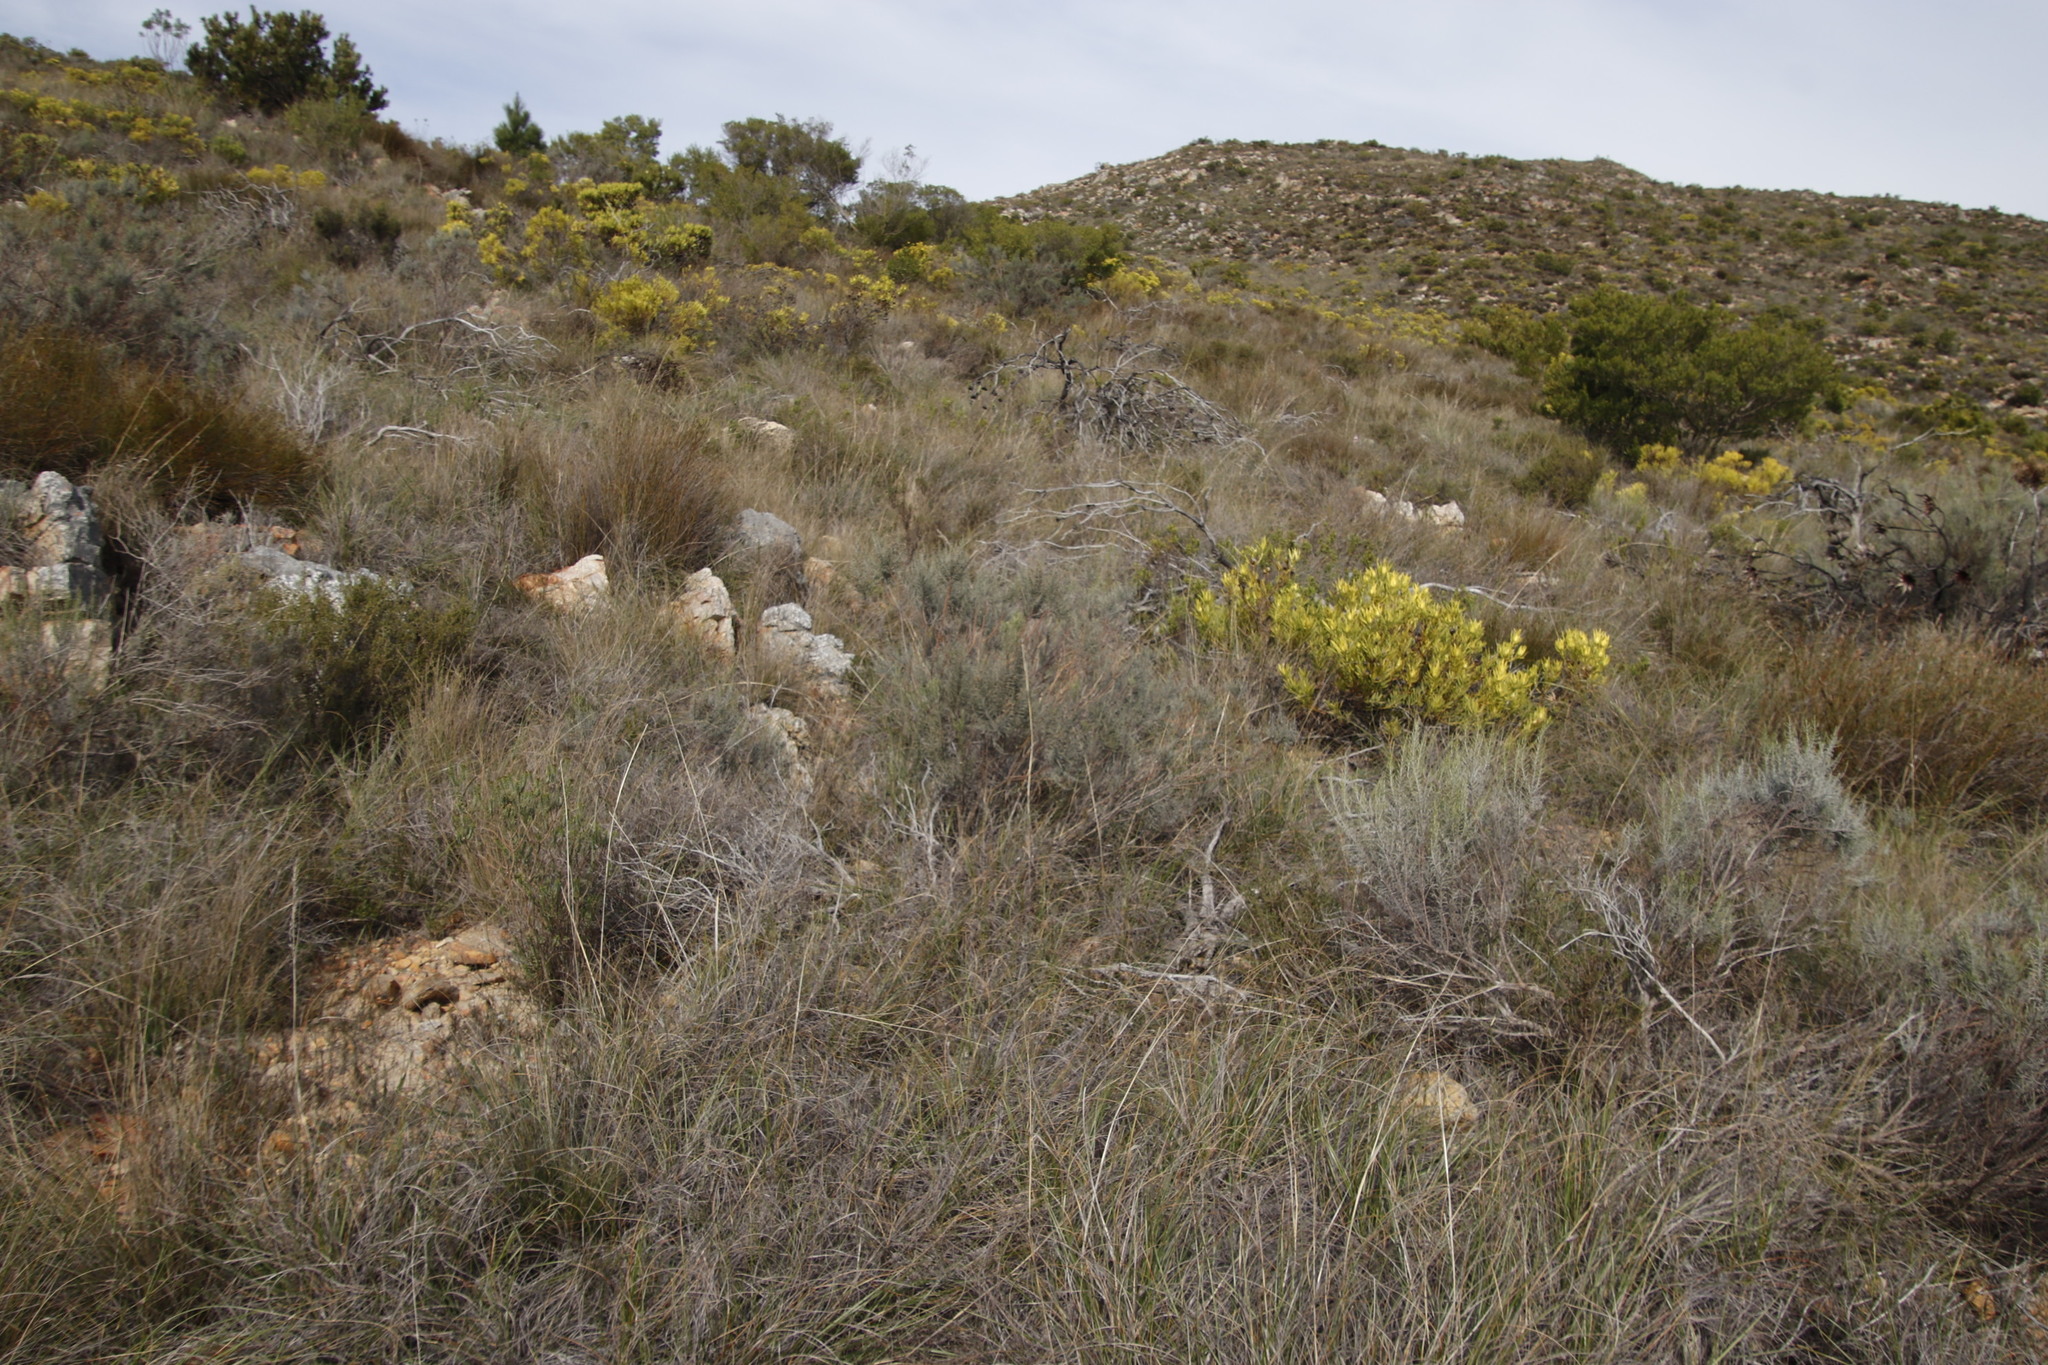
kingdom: Plantae
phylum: Tracheophyta
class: Magnoliopsida
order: Asterales
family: Asteraceae
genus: Dicerothamnus
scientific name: Dicerothamnus rhinocerotis
